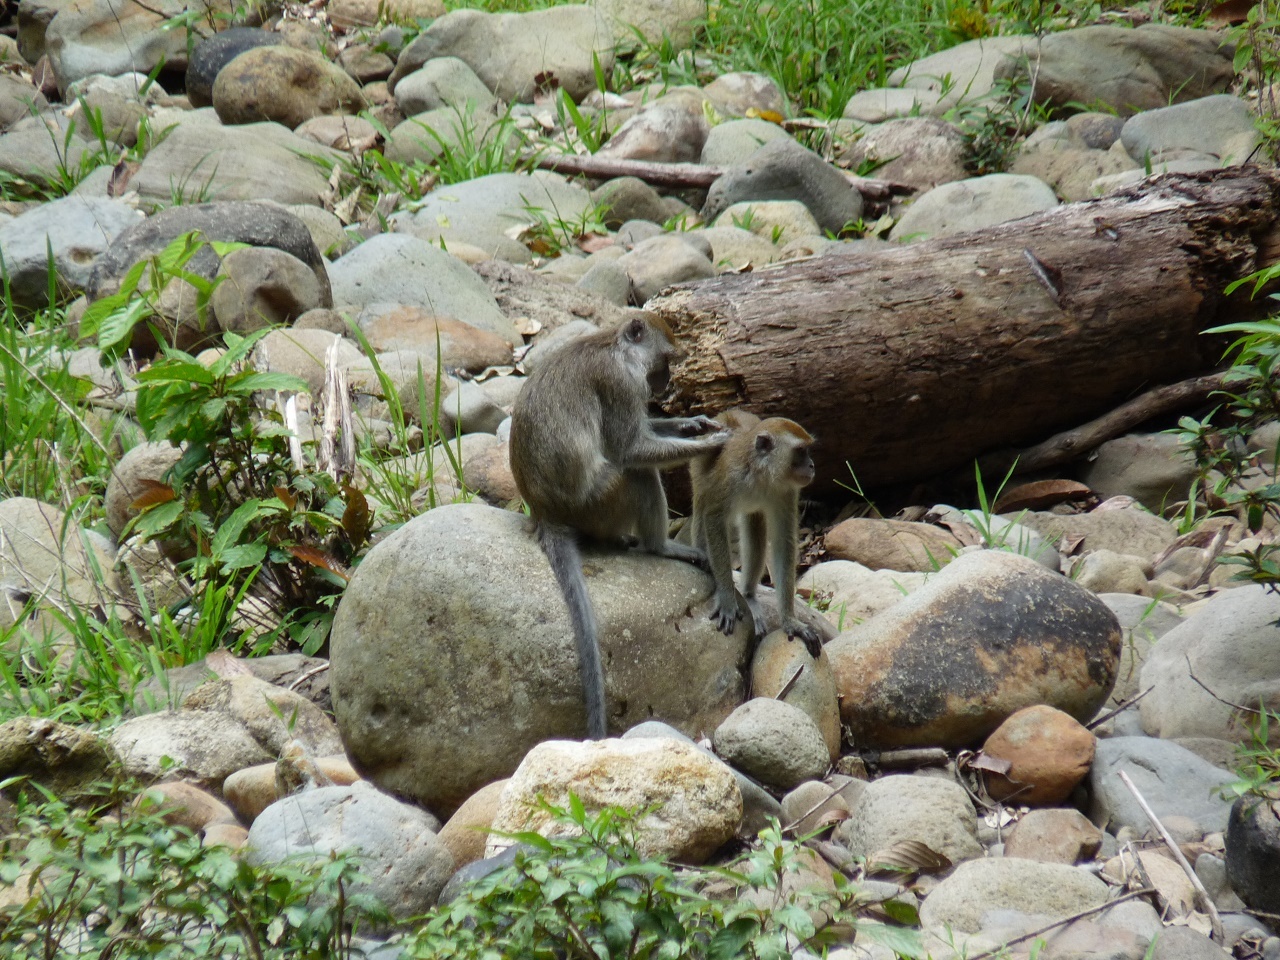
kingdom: Animalia
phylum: Chordata
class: Mammalia
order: Primates
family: Cercopithecidae
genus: Macaca
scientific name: Macaca fascicularis
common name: Crab-eating macaque
